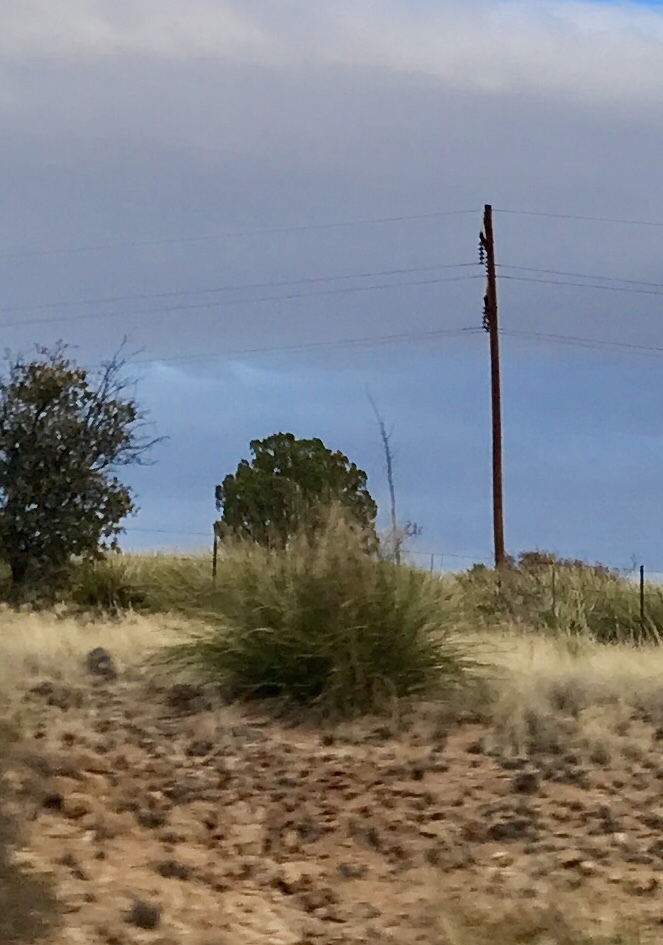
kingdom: Plantae
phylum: Tracheophyta
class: Liliopsida
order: Asparagales
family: Asparagaceae
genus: Nolina
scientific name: Nolina microcarpa
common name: Bear-grass
